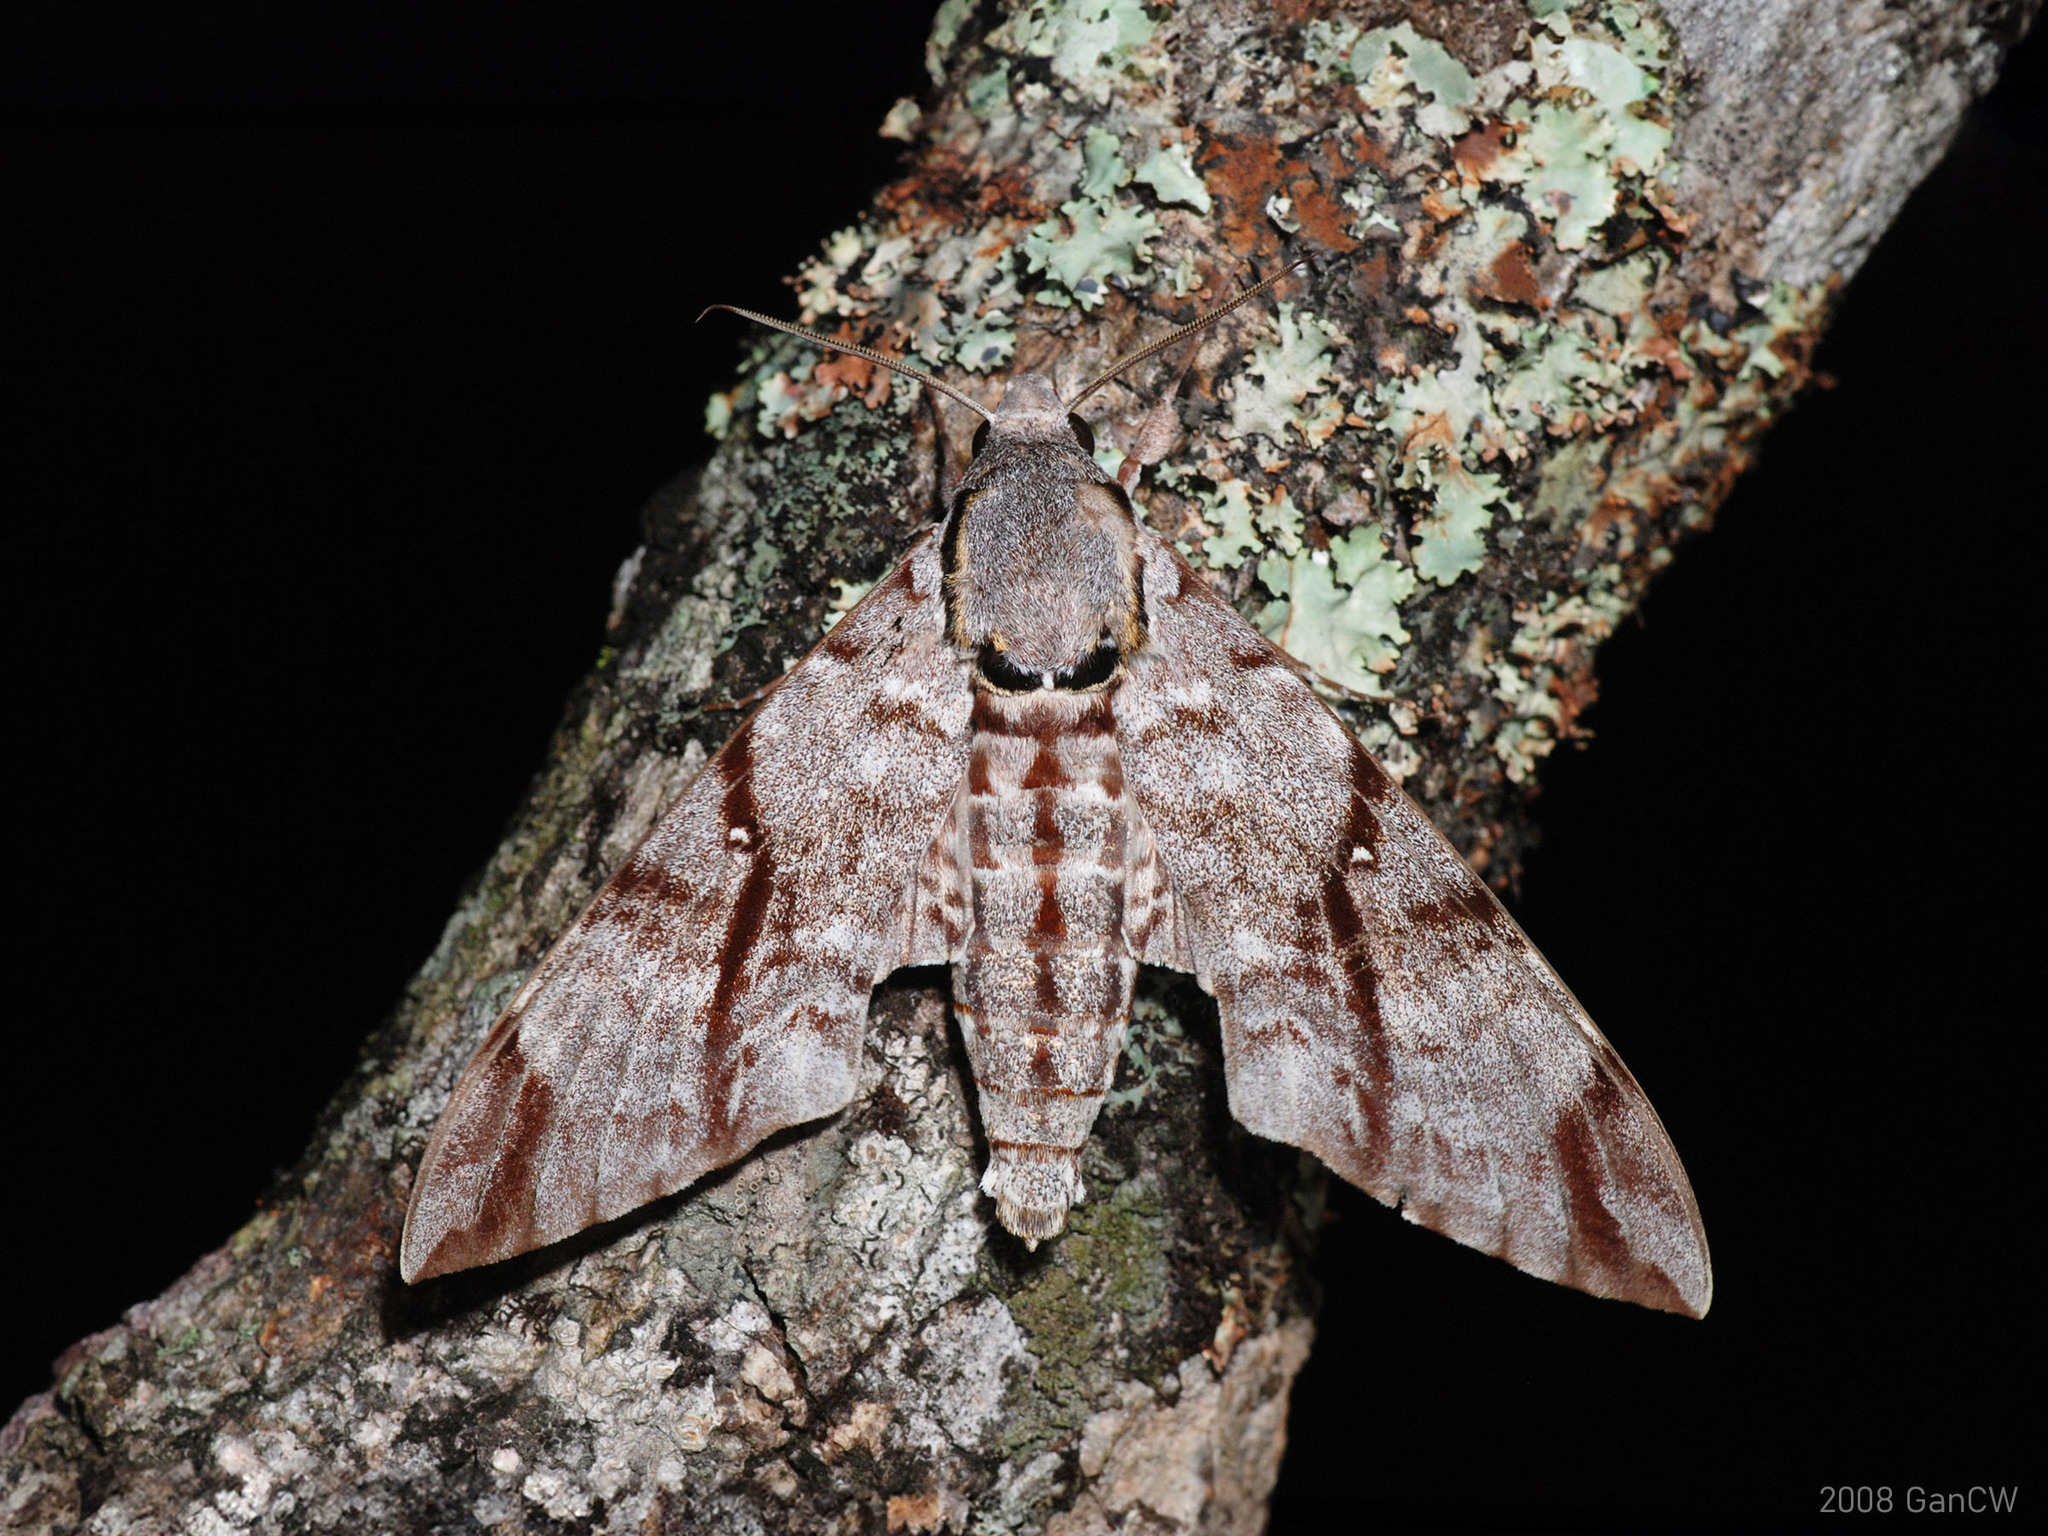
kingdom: Animalia
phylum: Arthropoda
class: Insecta
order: Lepidoptera
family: Sphingidae
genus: Notonagemia
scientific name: Notonagemia analis
